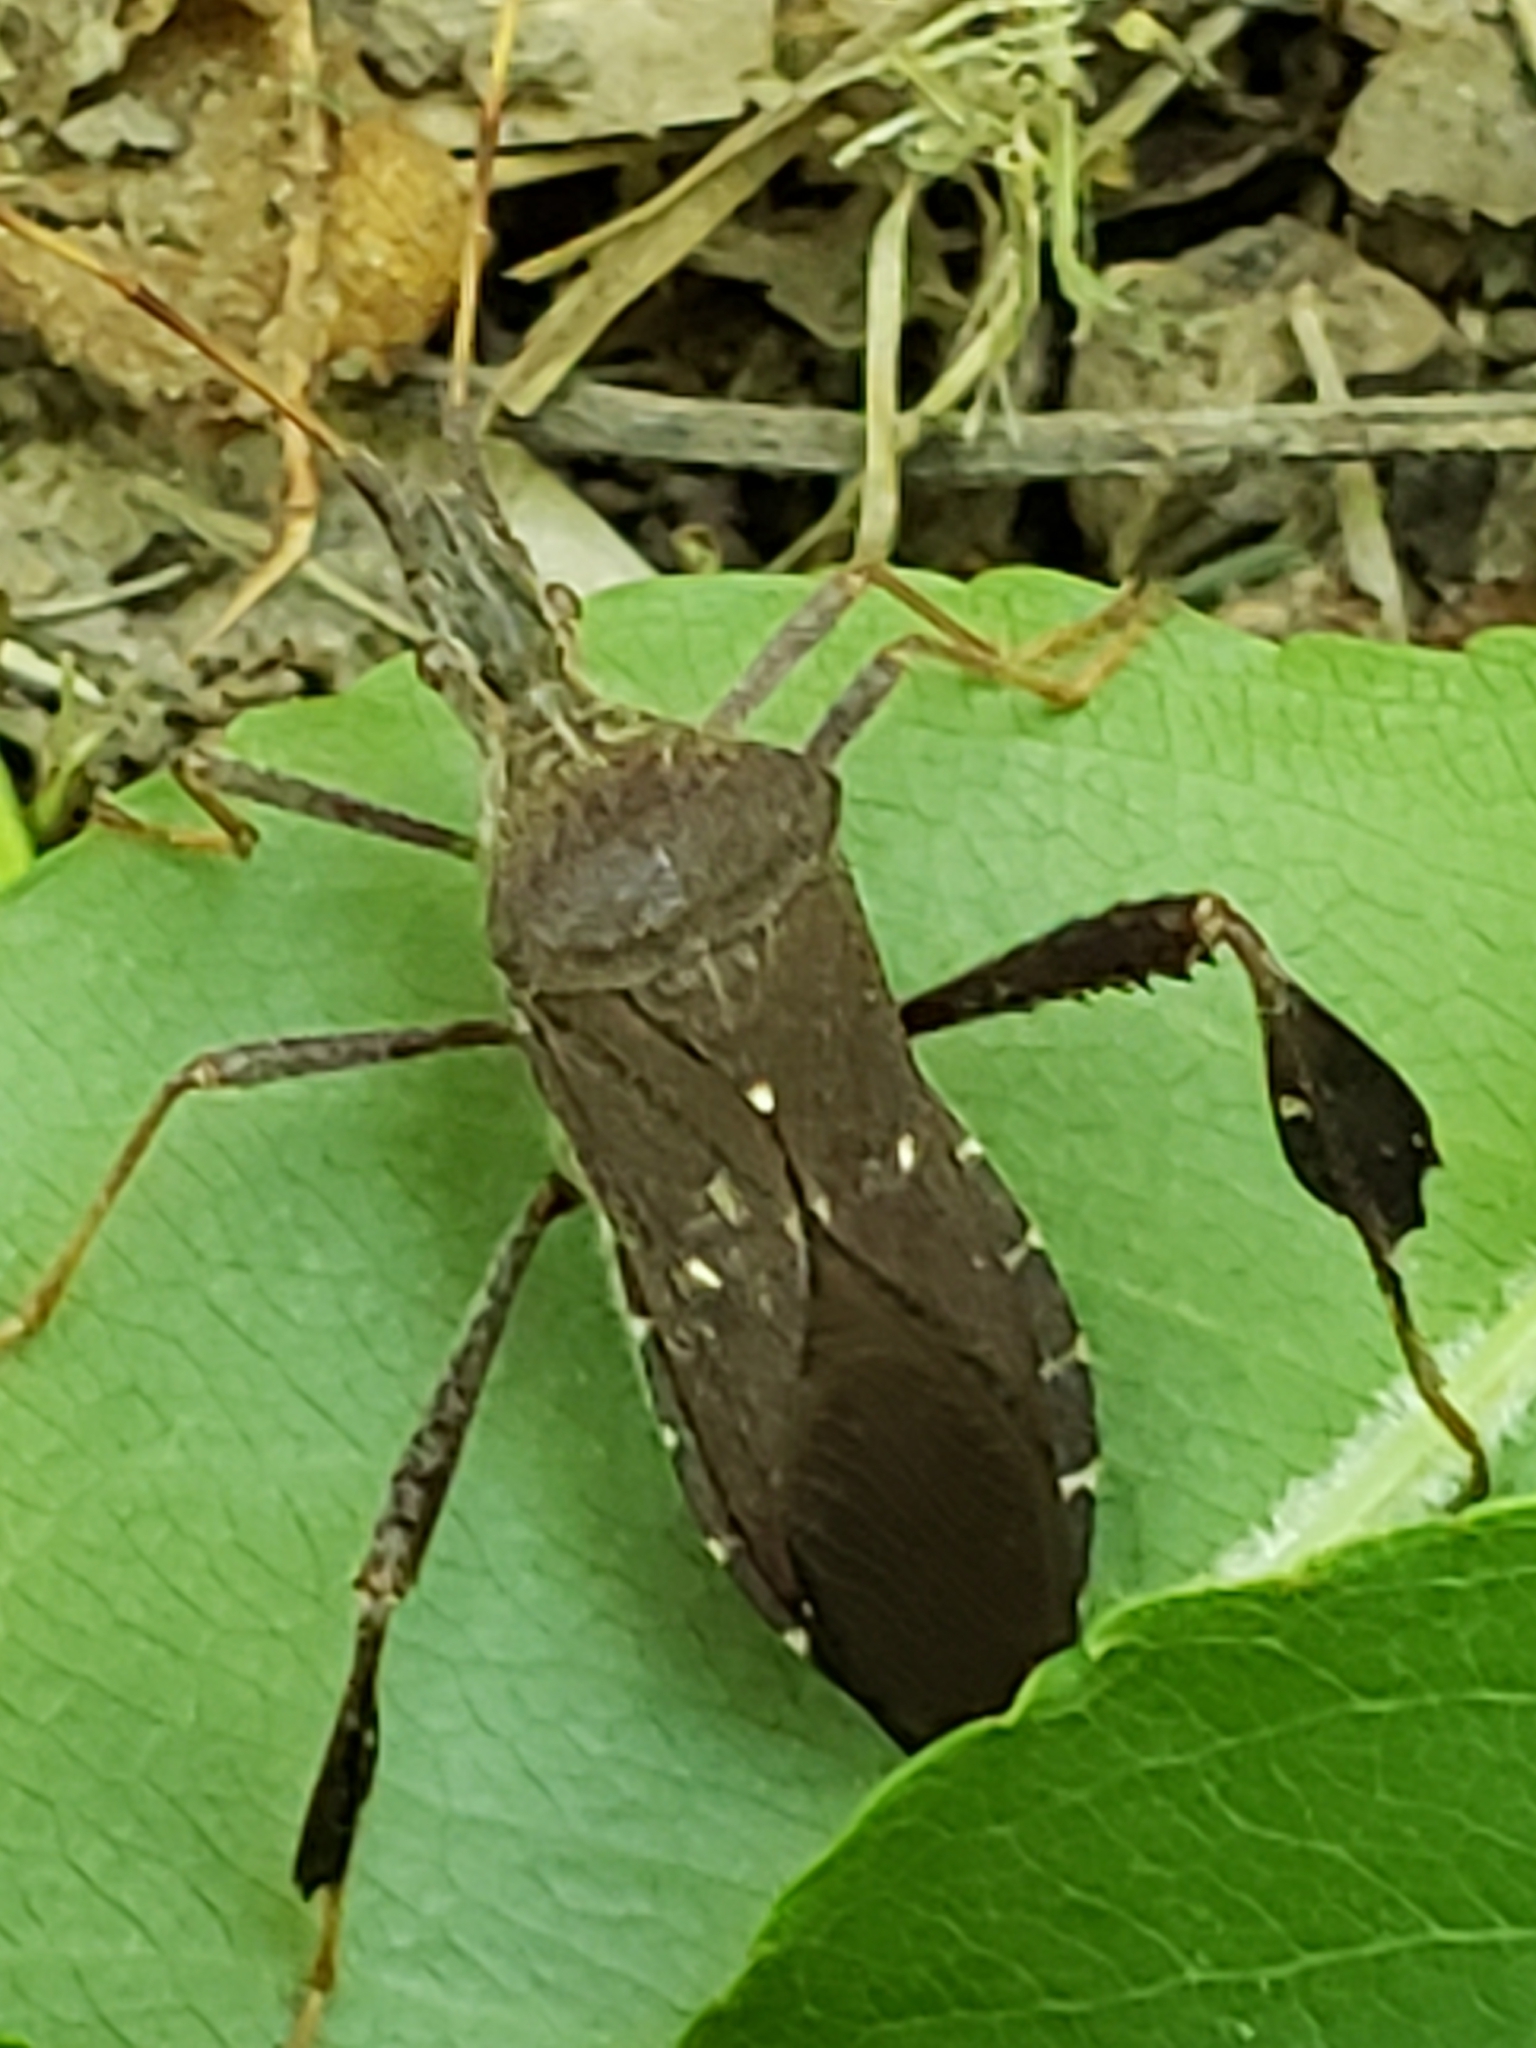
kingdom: Animalia
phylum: Arthropoda
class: Insecta
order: Hemiptera
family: Coreidae
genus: Leptoglossus
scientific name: Leptoglossus oppositus
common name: Northern leaf-footed bug
